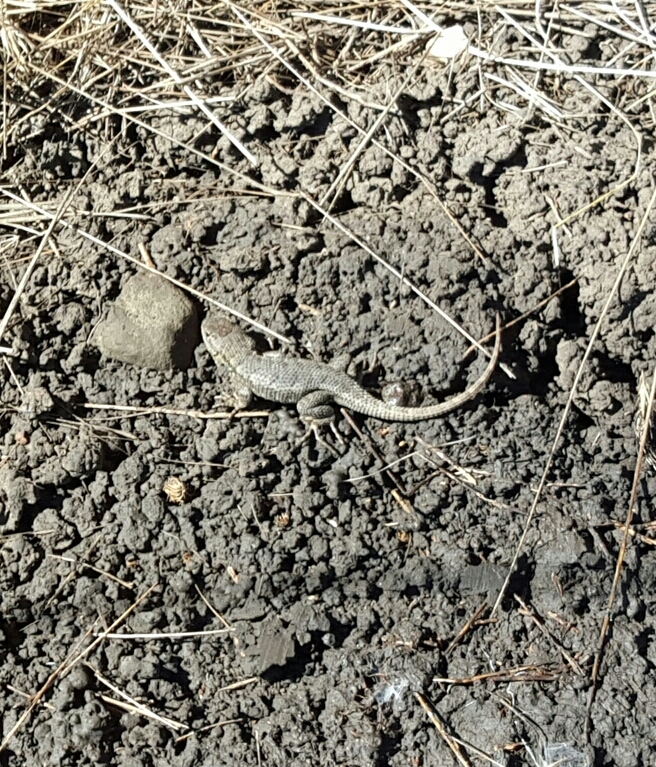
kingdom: Animalia
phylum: Chordata
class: Squamata
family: Phrynosomatidae
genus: Sceloporus
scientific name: Sceloporus occidentalis
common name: Western fence lizard
